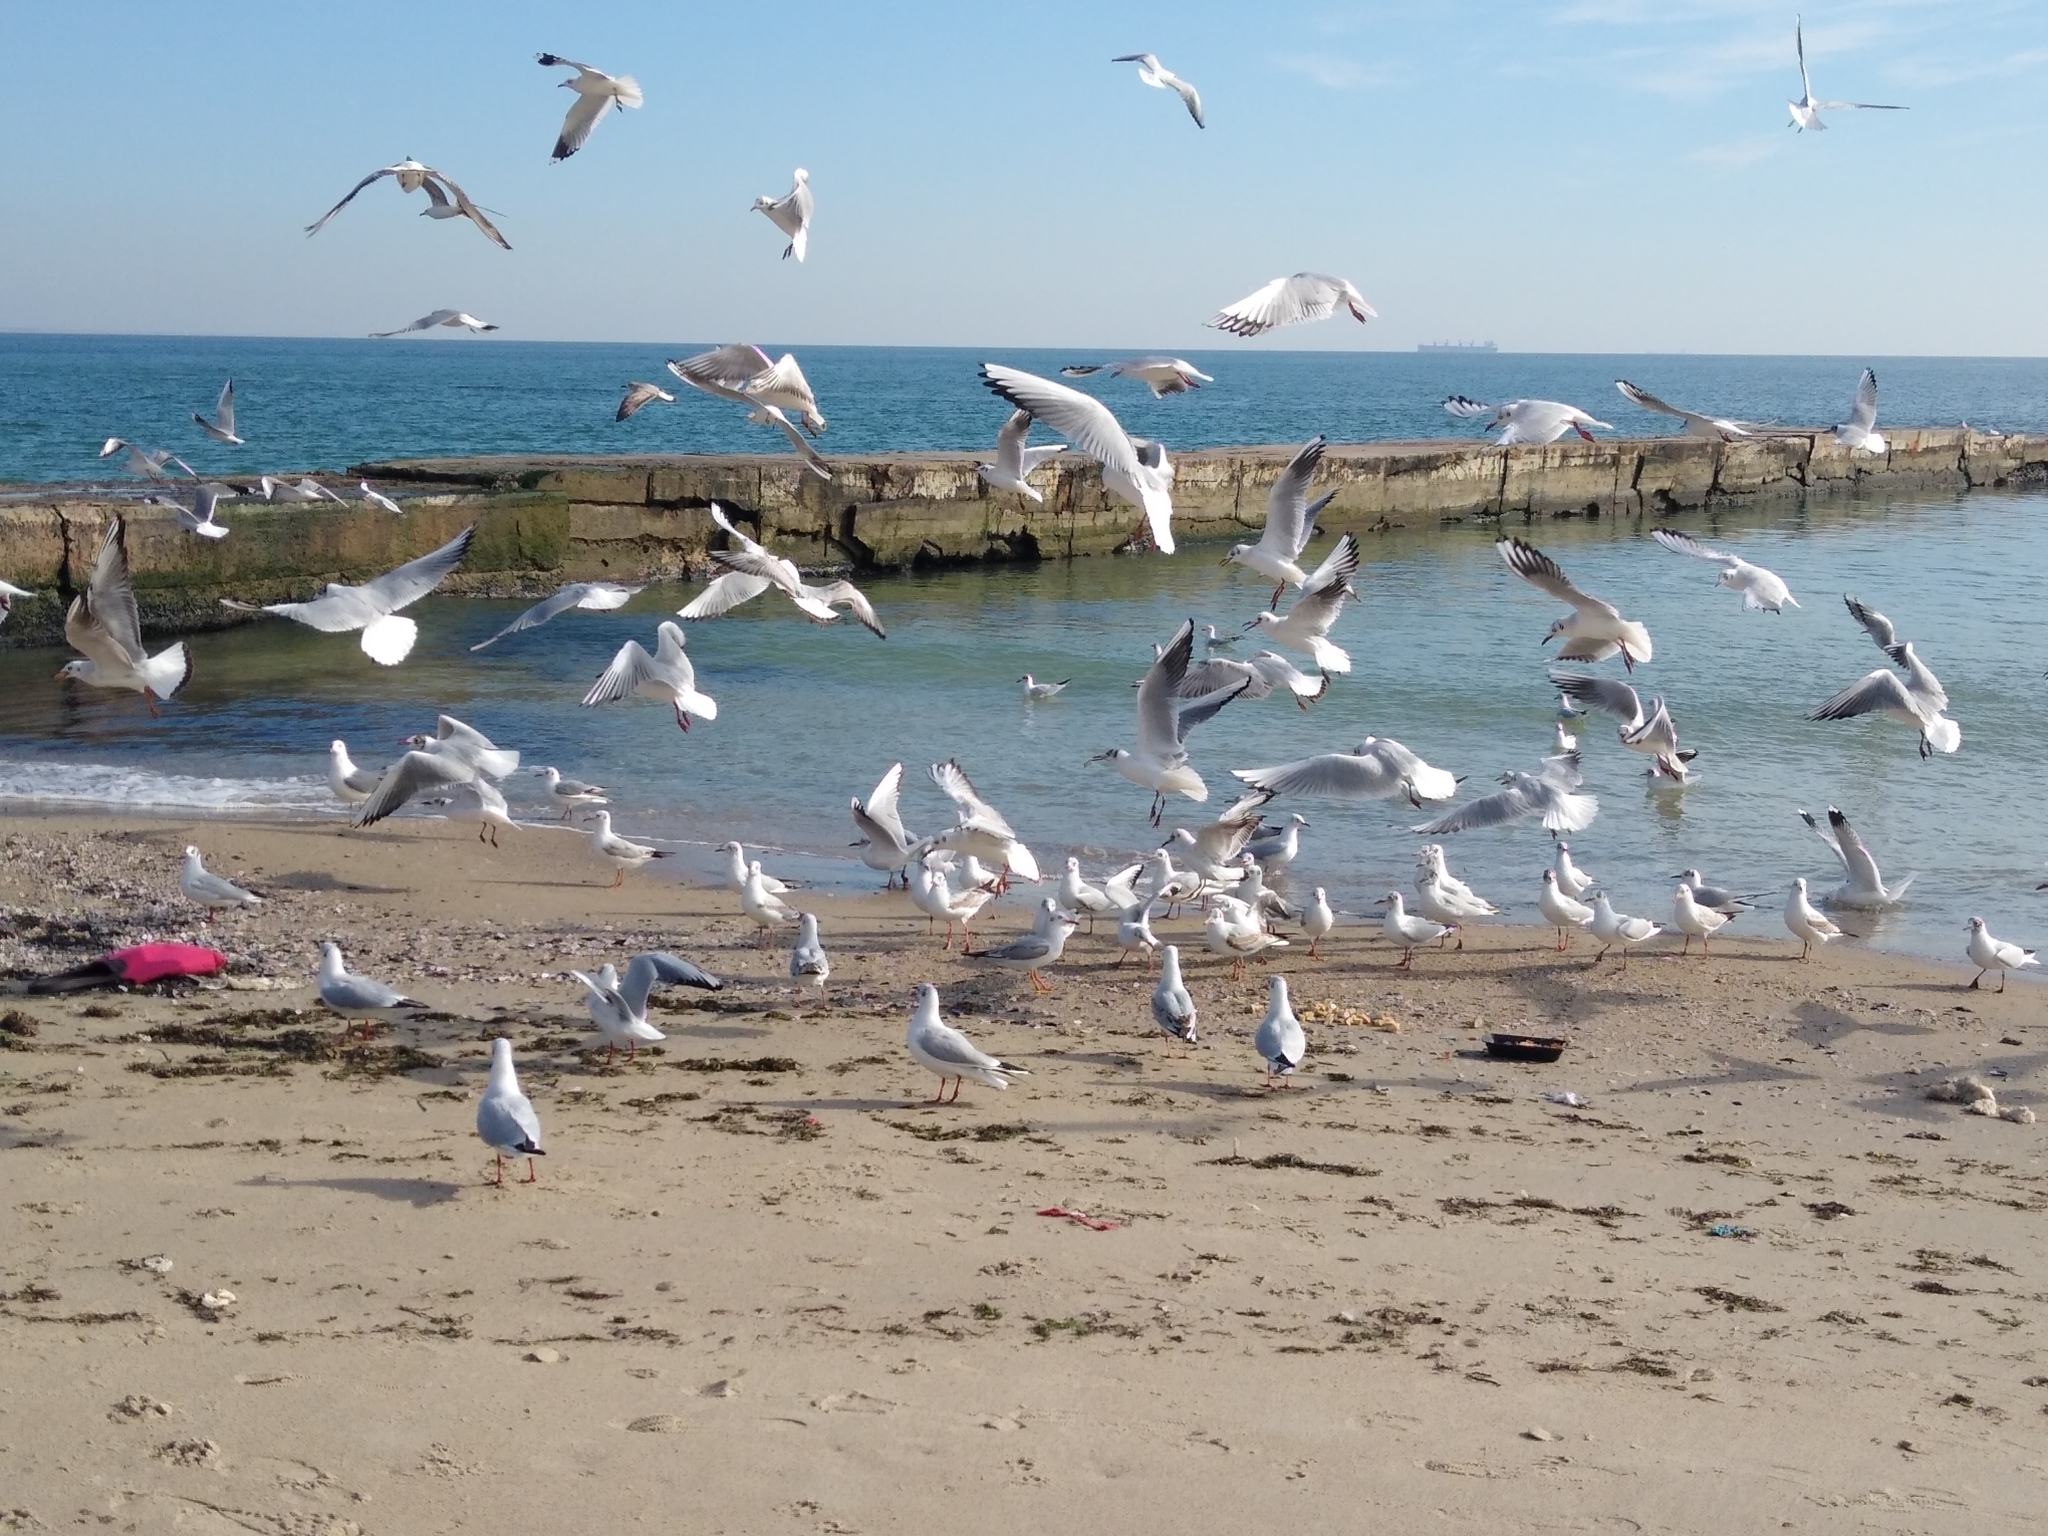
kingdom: Animalia
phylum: Chordata
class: Aves
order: Charadriiformes
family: Laridae
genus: Chroicocephalus
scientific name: Chroicocephalus ridibundus
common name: Black-headed gull
